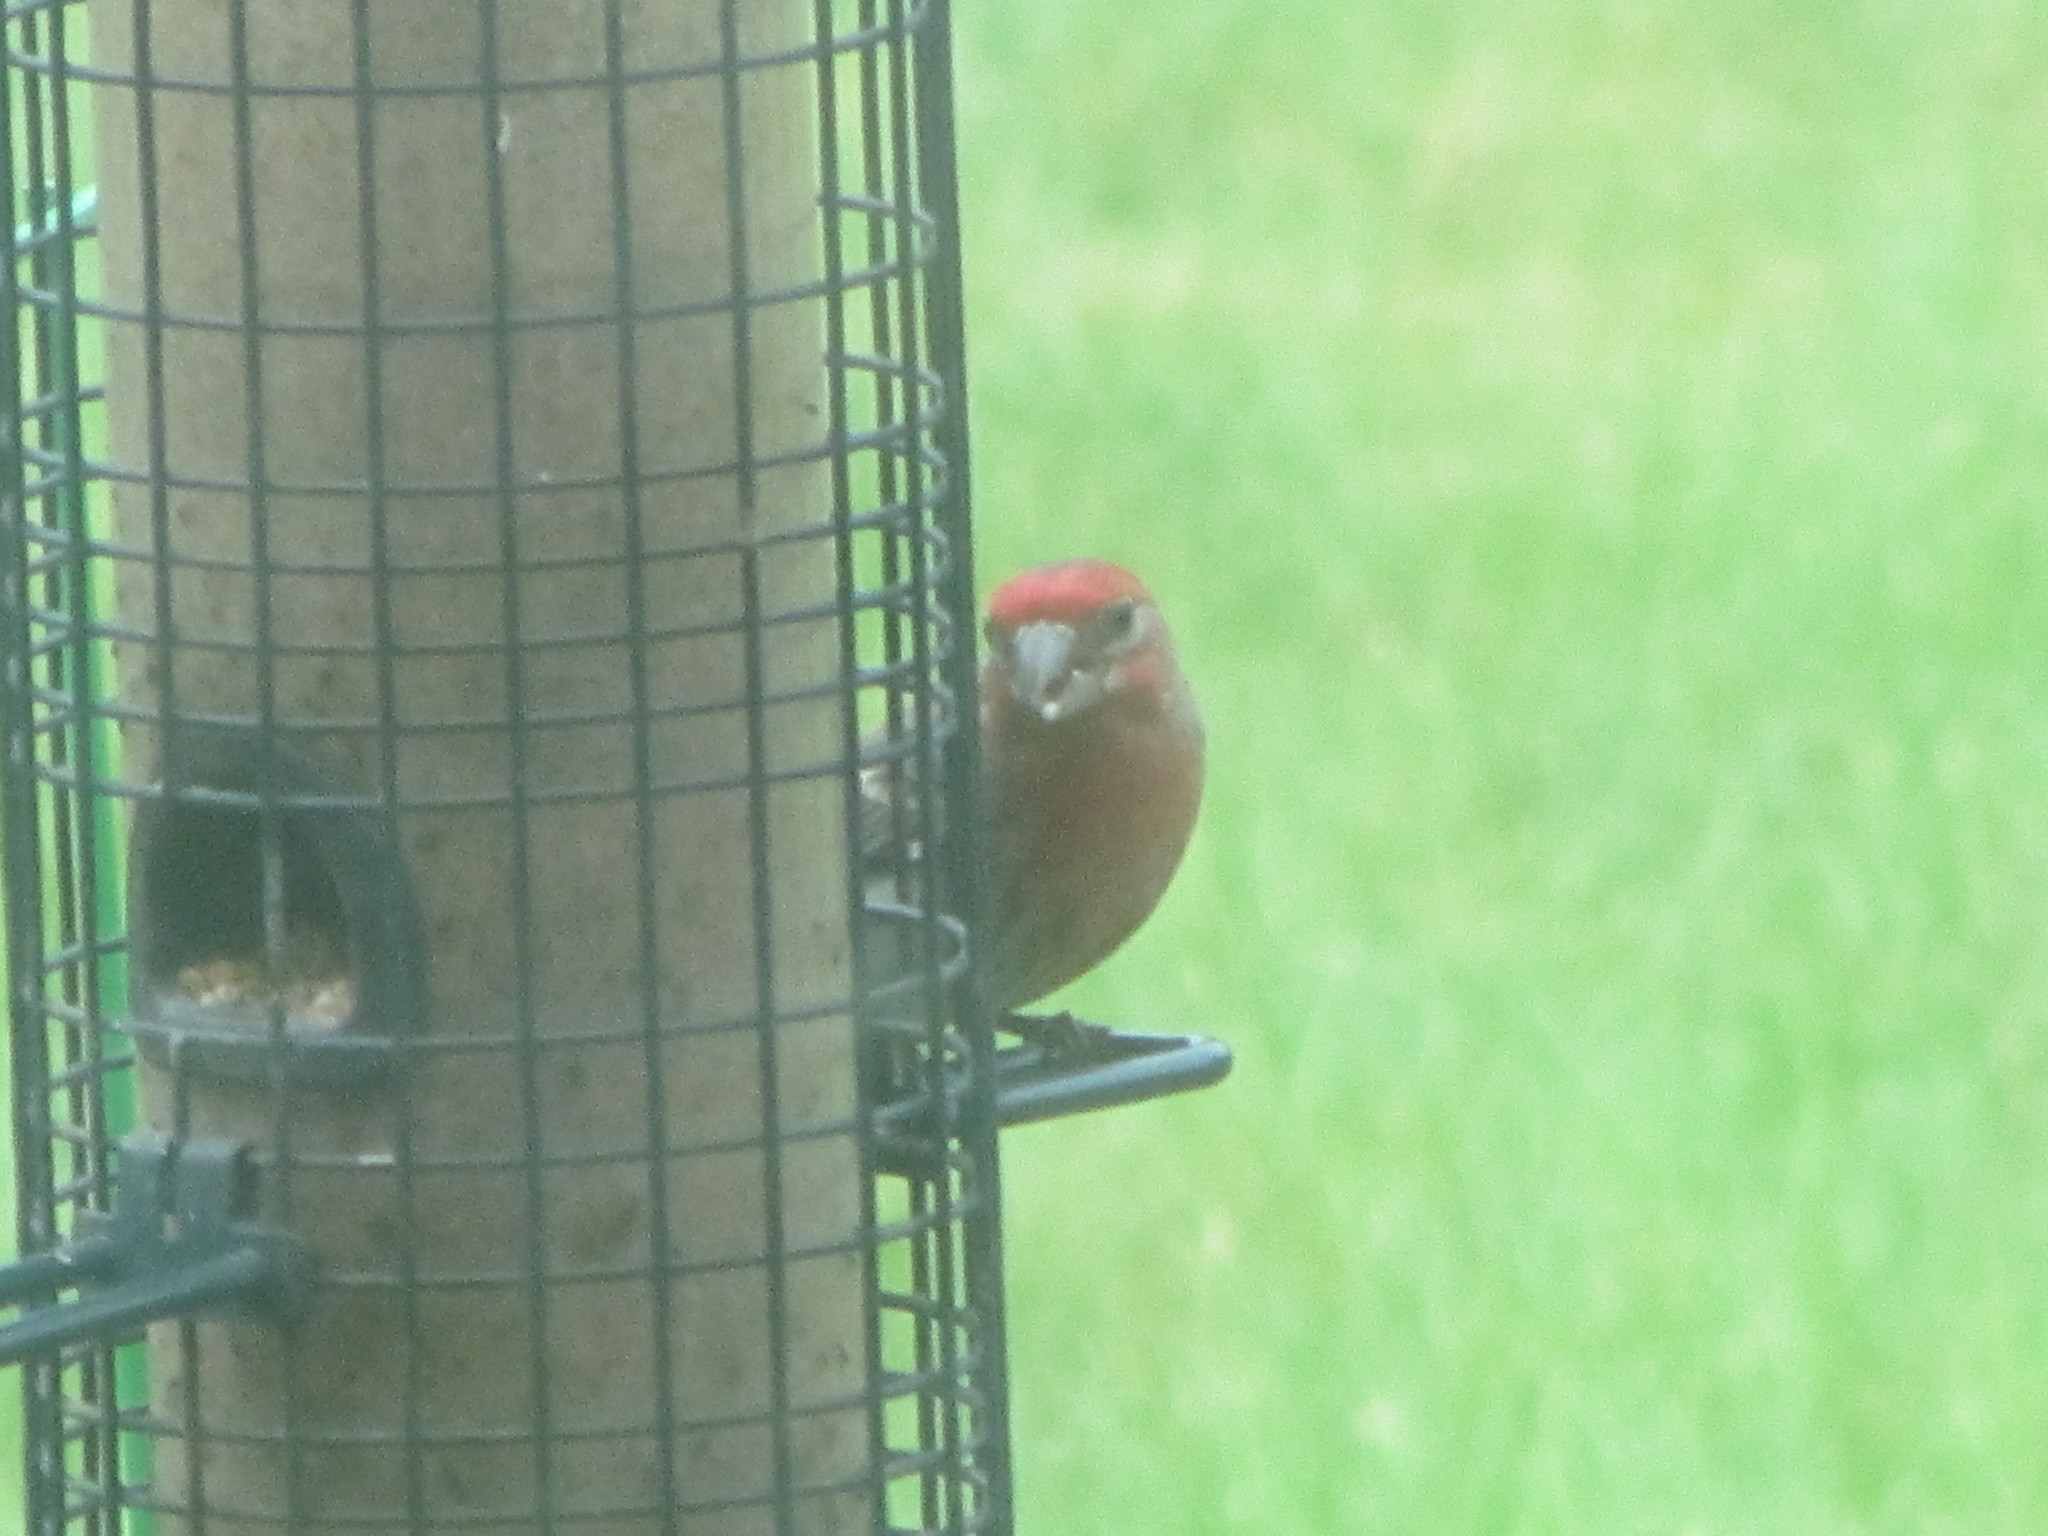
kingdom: Animalia
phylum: Chordata
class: Aves
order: Passeriformes
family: Fringillidae
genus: Haemorhous
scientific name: Haemorhous mexicanus
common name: House finch
